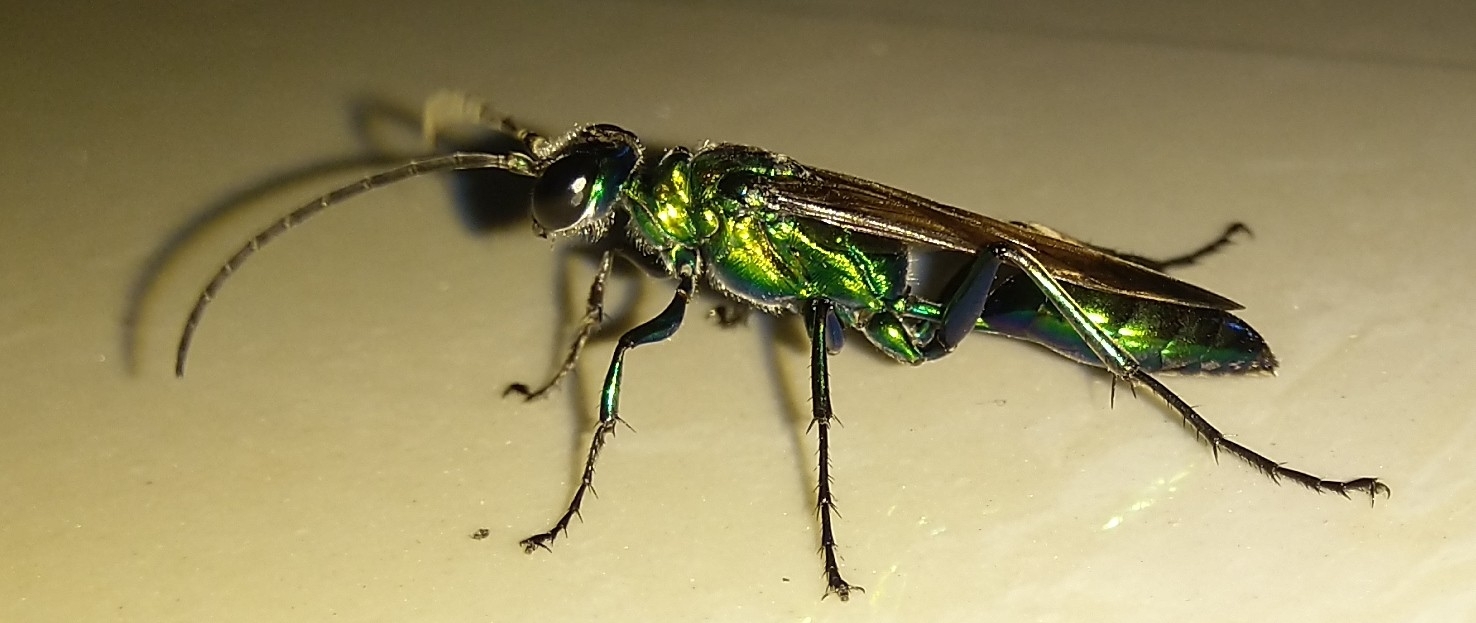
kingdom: Animalia
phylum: Arthropoda
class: Insecta
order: Hymenoptera
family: Sphecidae
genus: Chlorion
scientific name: Chlorion lobatum
